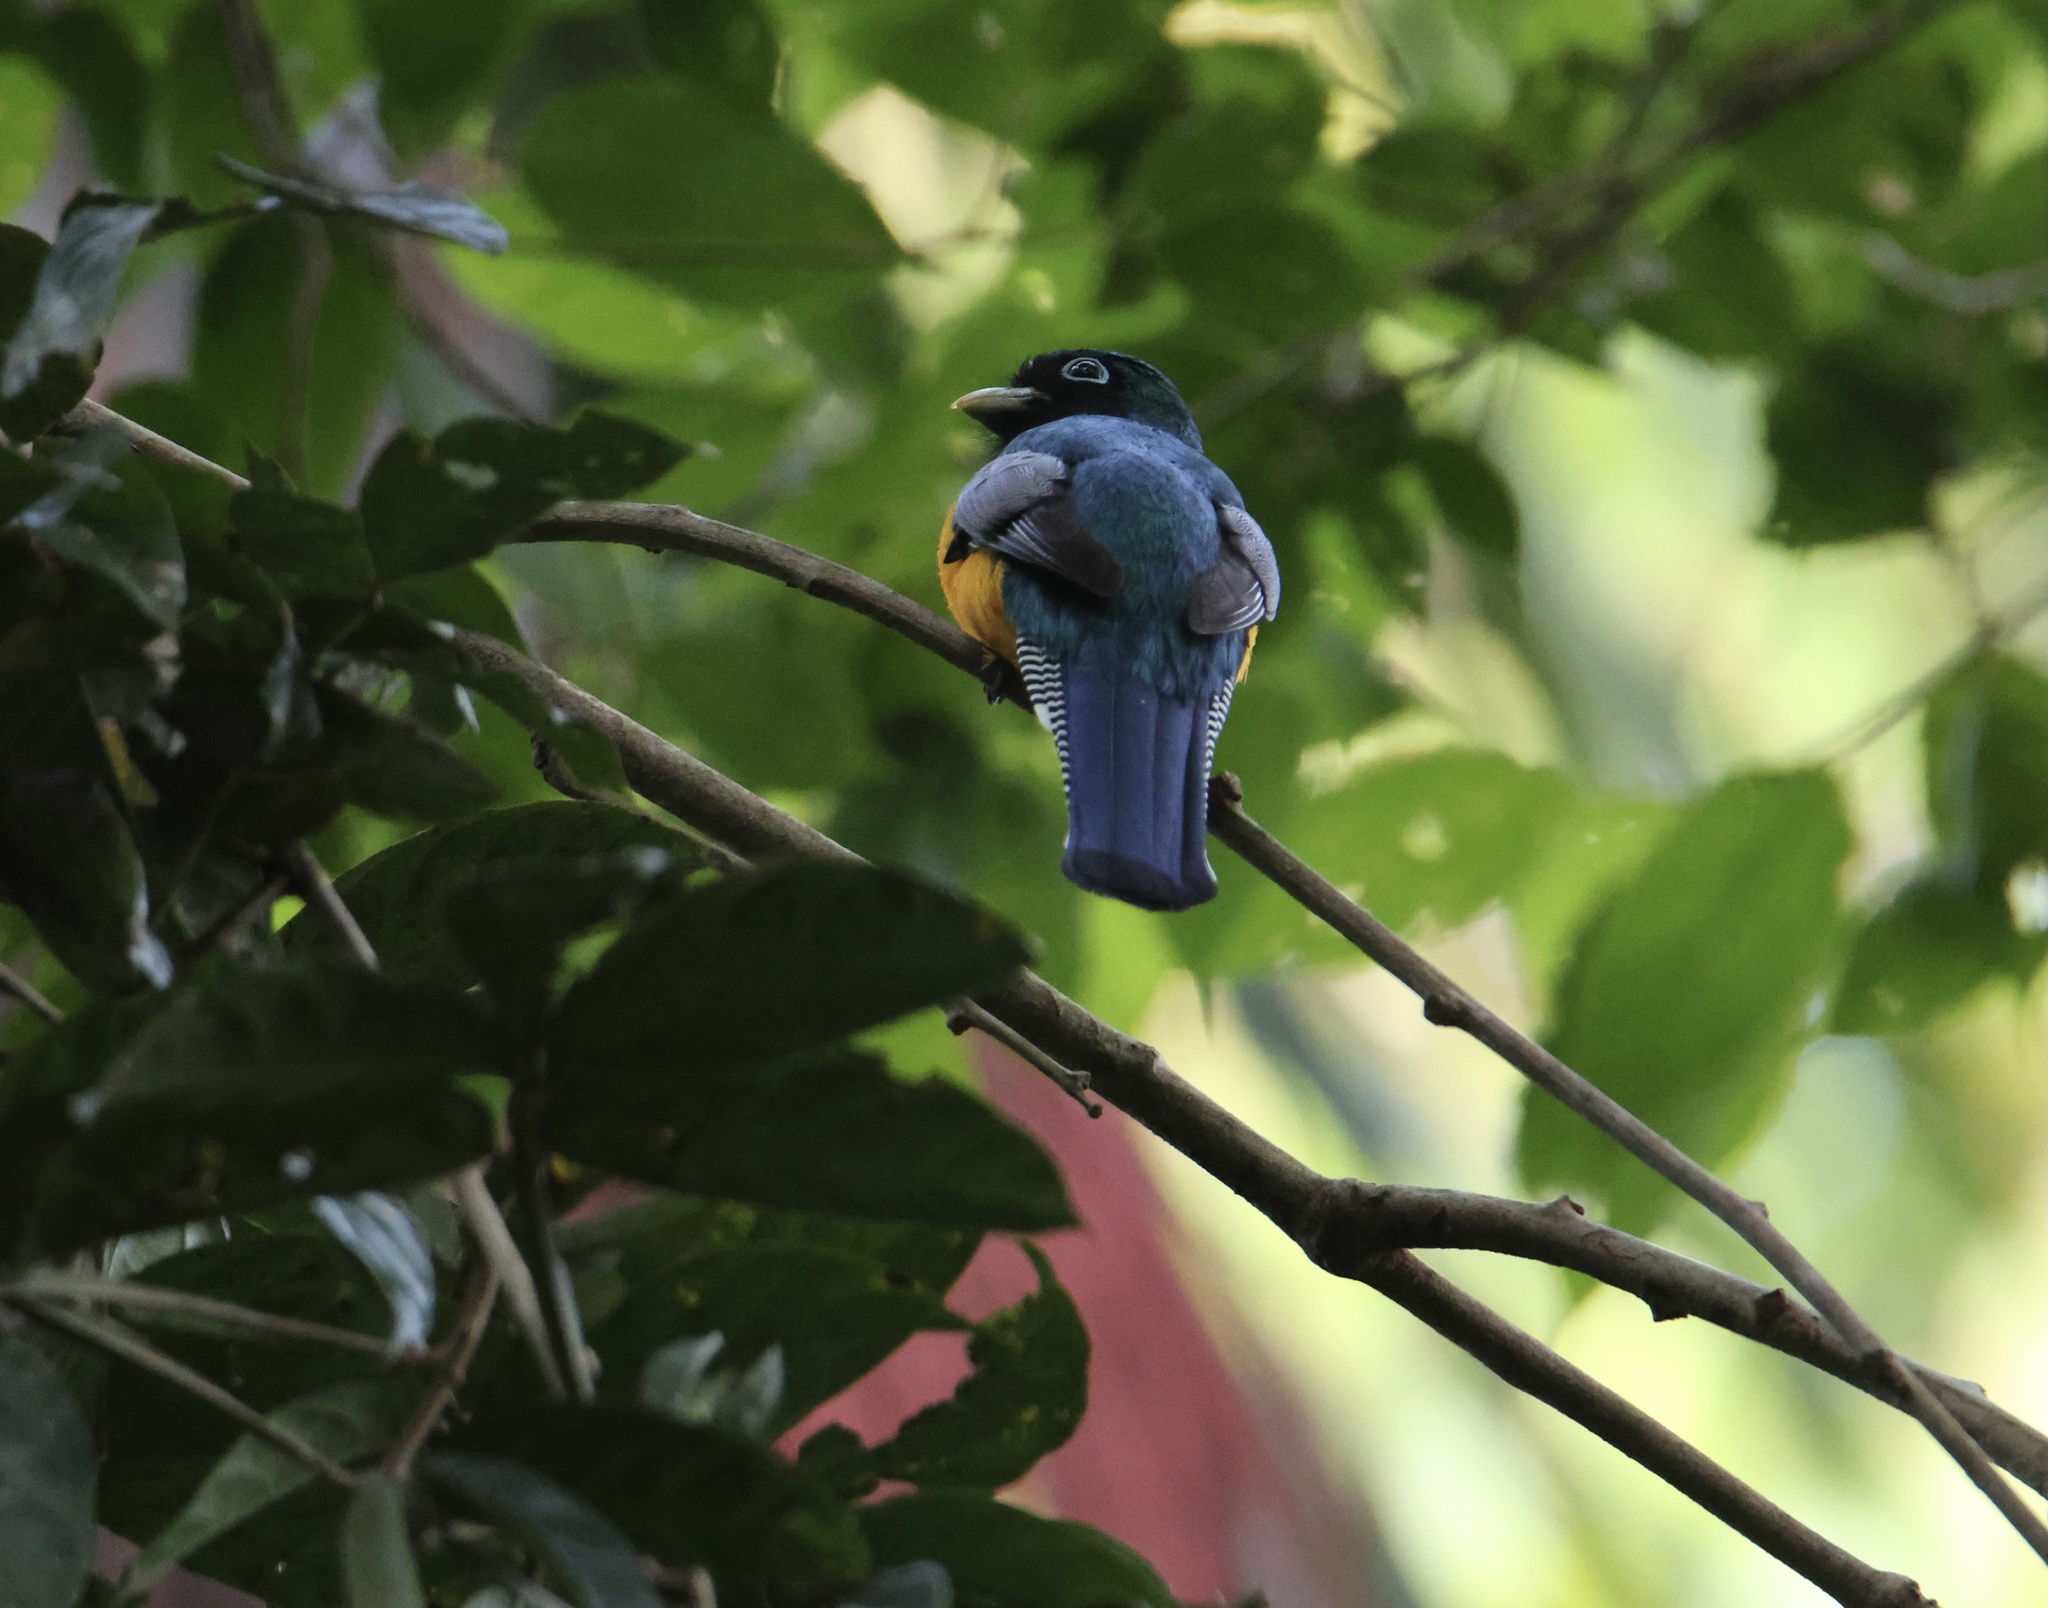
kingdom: Animalia
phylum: Chordata
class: Aves
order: Trogoniformes
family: Trogonidae
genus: Trogon
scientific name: Trogon rufus
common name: Black-throated trogon
